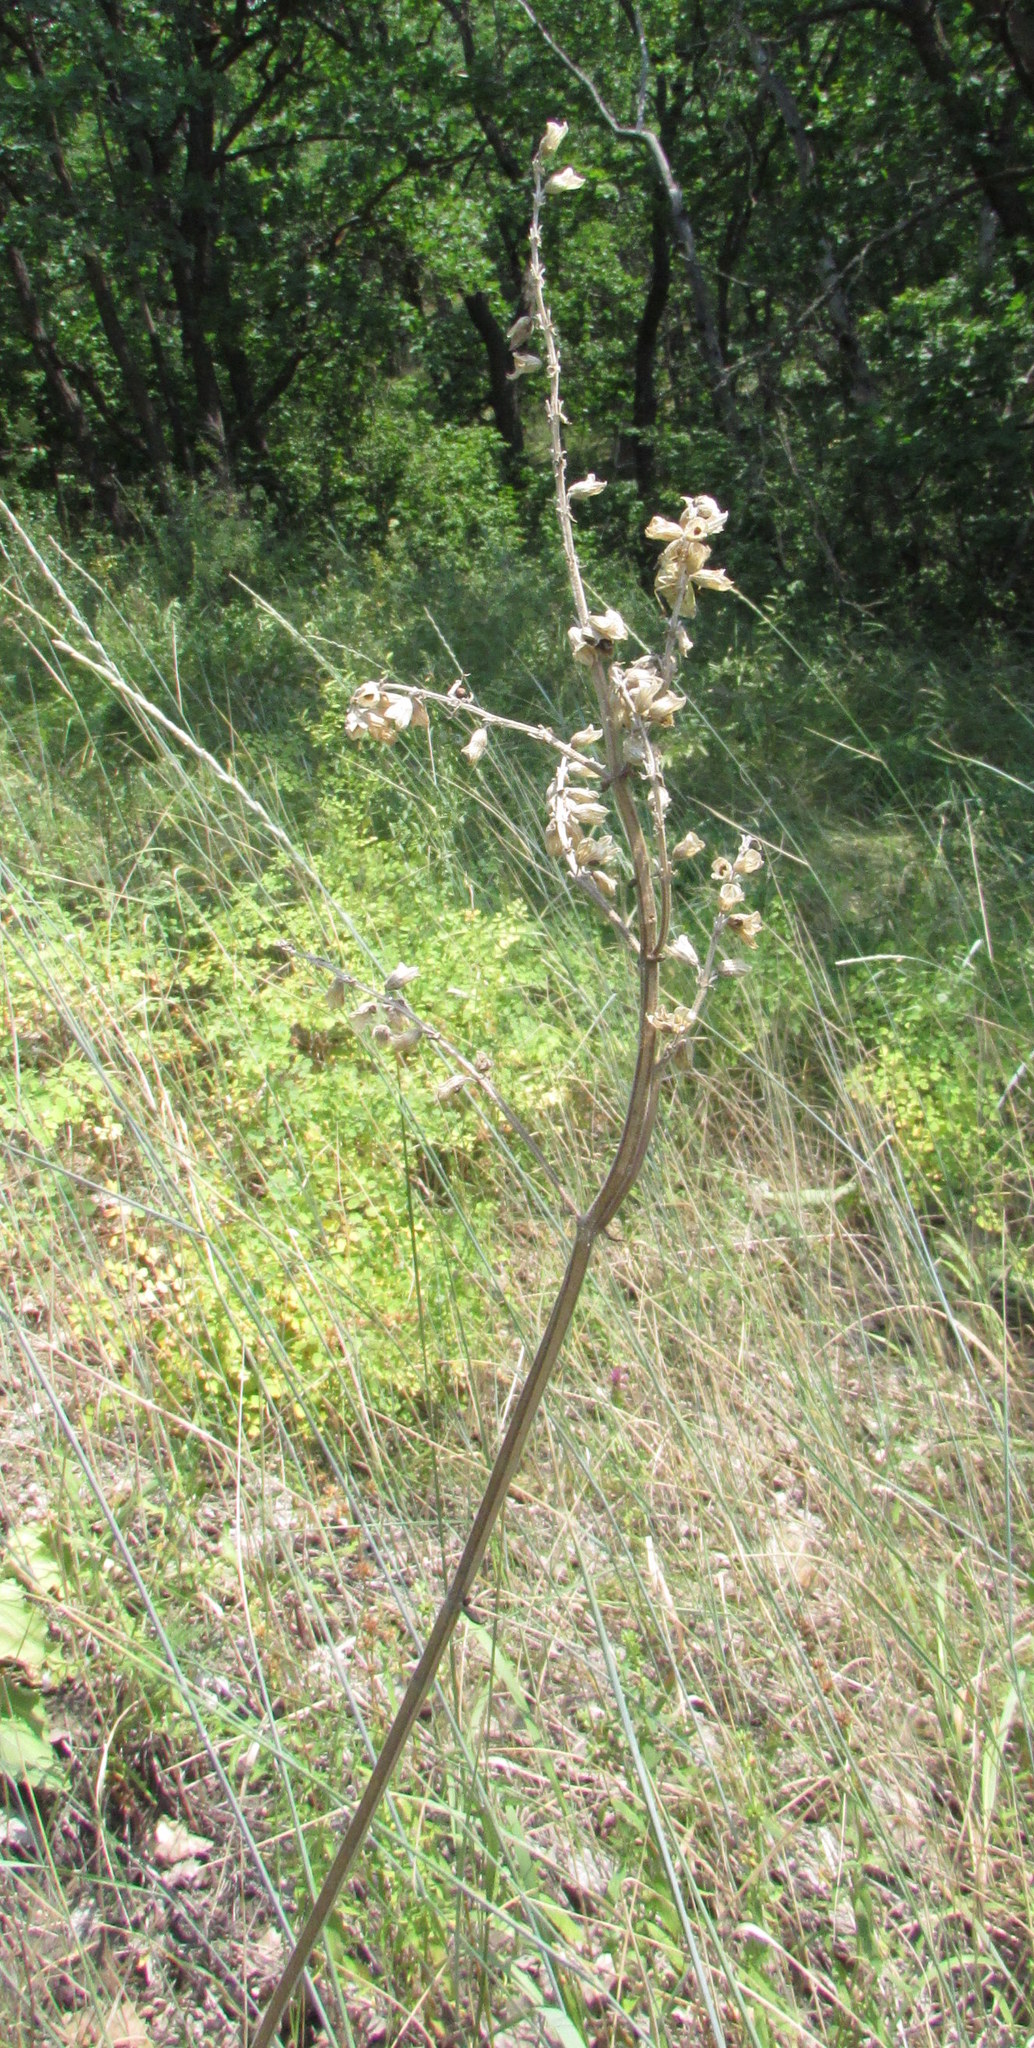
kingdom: Plantae
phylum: Tracheophyta
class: Magnoliopsida
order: Lamiales
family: Lamiaceae
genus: Salvia
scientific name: Salvia nutans
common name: Nodding sage
